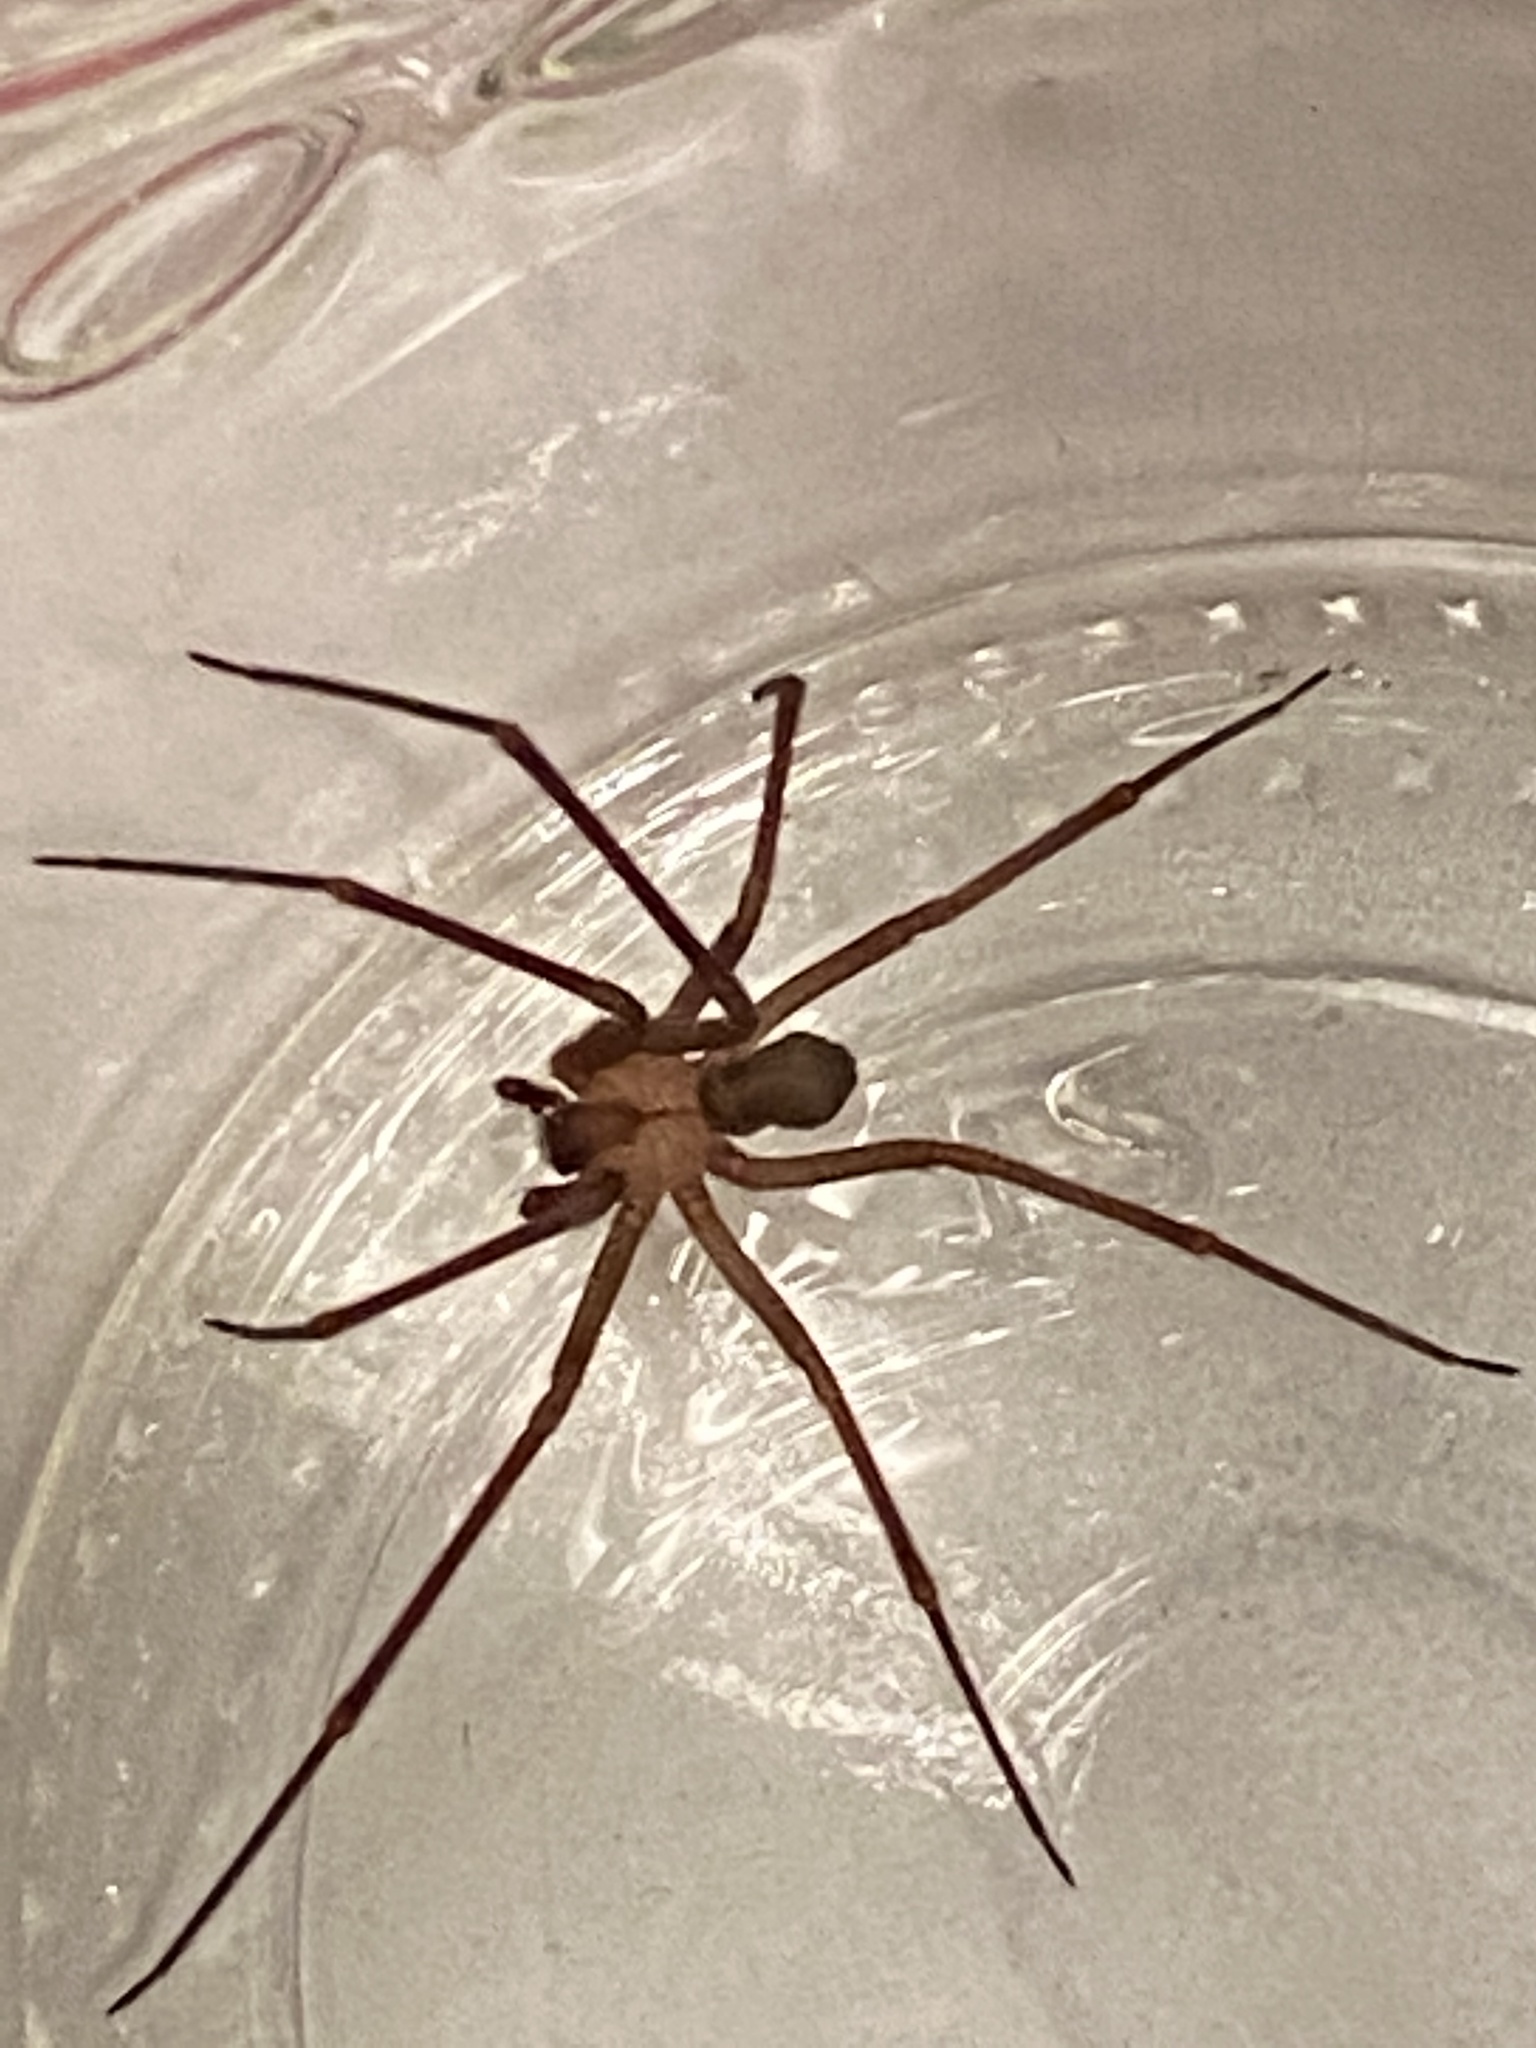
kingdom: Animalia
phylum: Arthropoda
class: Arachnida
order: Araneae
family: Sicariidae
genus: Loxosceles
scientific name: Loxosceles reclusa
